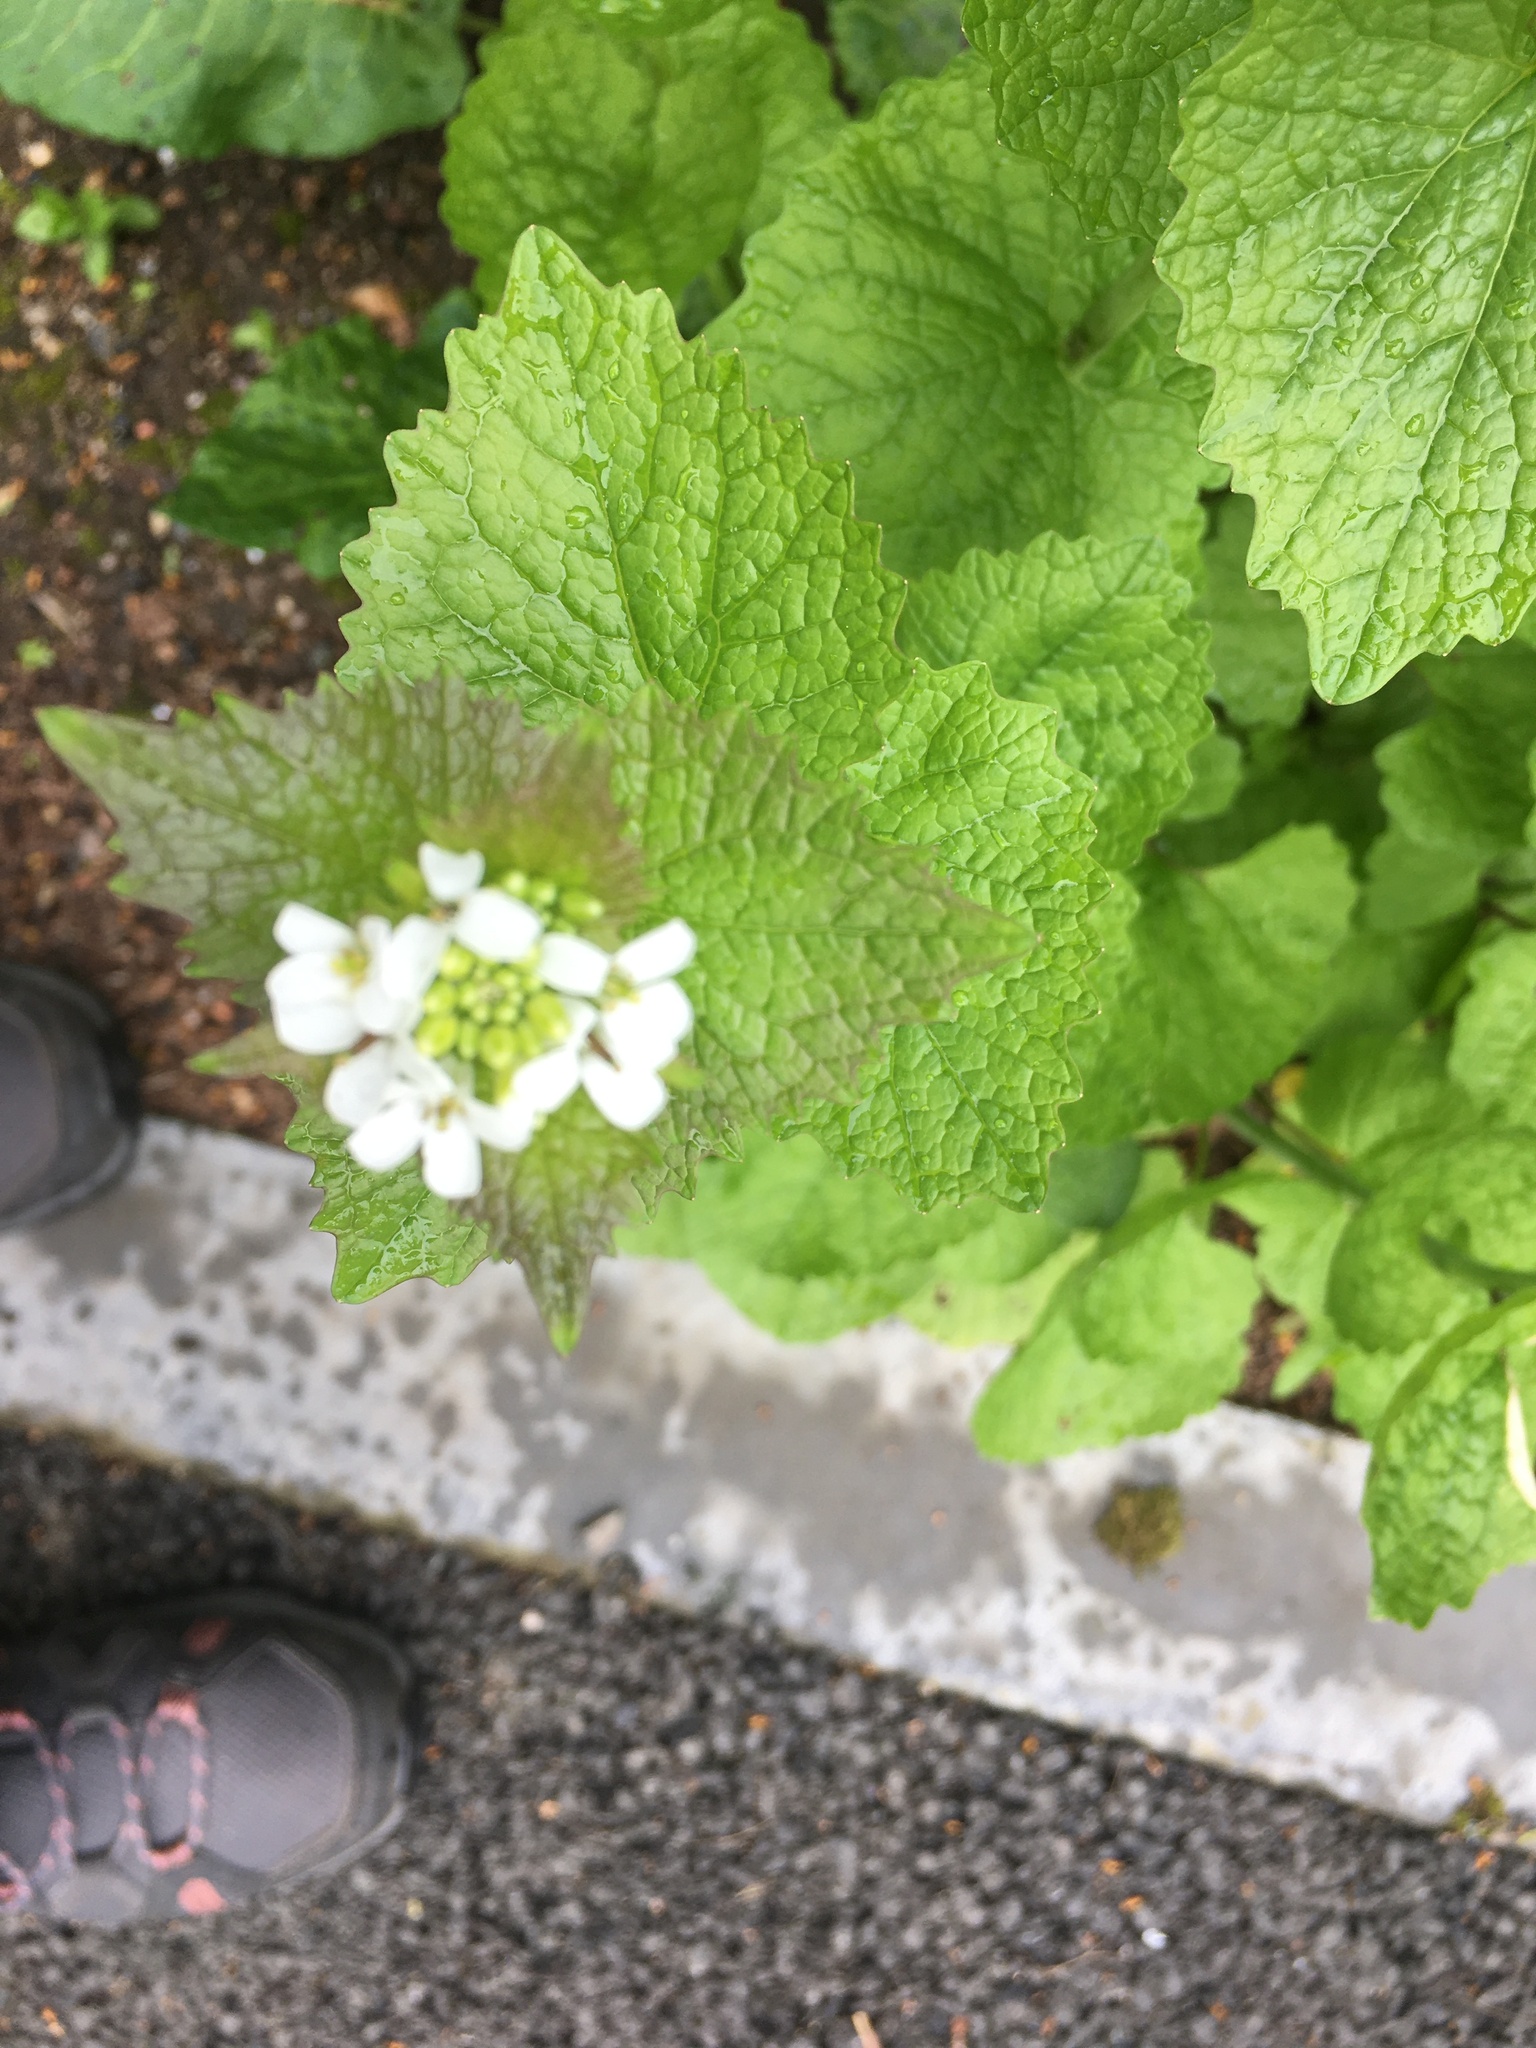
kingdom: Plantae
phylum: Tracheophyta
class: Magnoliopsida
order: Brassicales
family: Brassicaceae
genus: Alliaria
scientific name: Alliaria petiolata
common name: Garlic mustard
